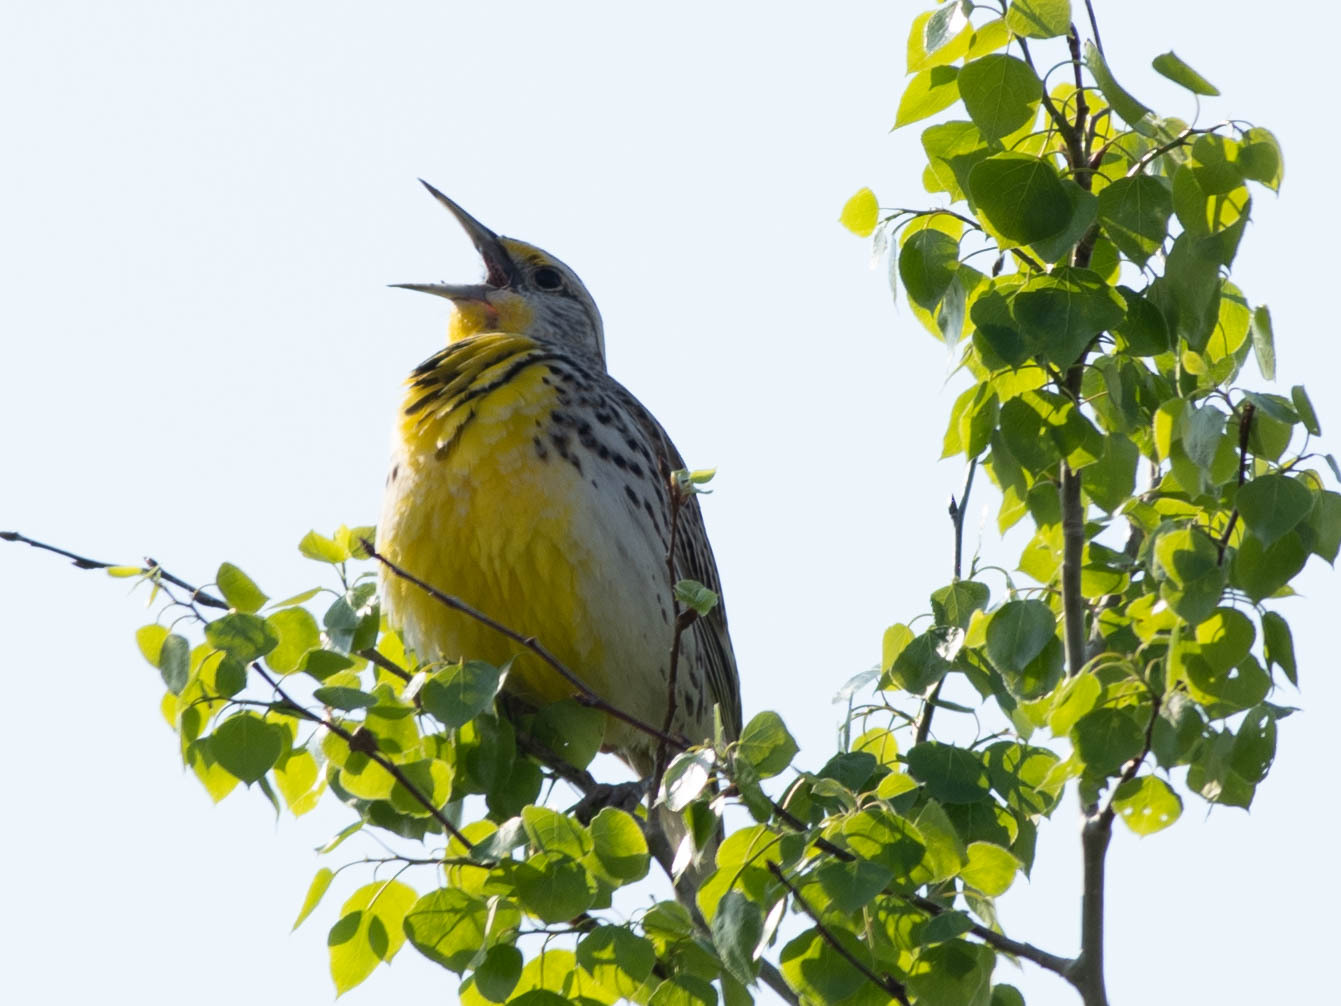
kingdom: Animalia
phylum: Chordata
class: Aves
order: Passeriformes
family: Icteridae
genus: Sturnella
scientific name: Sturnella neglecta
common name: Western meadowlark
